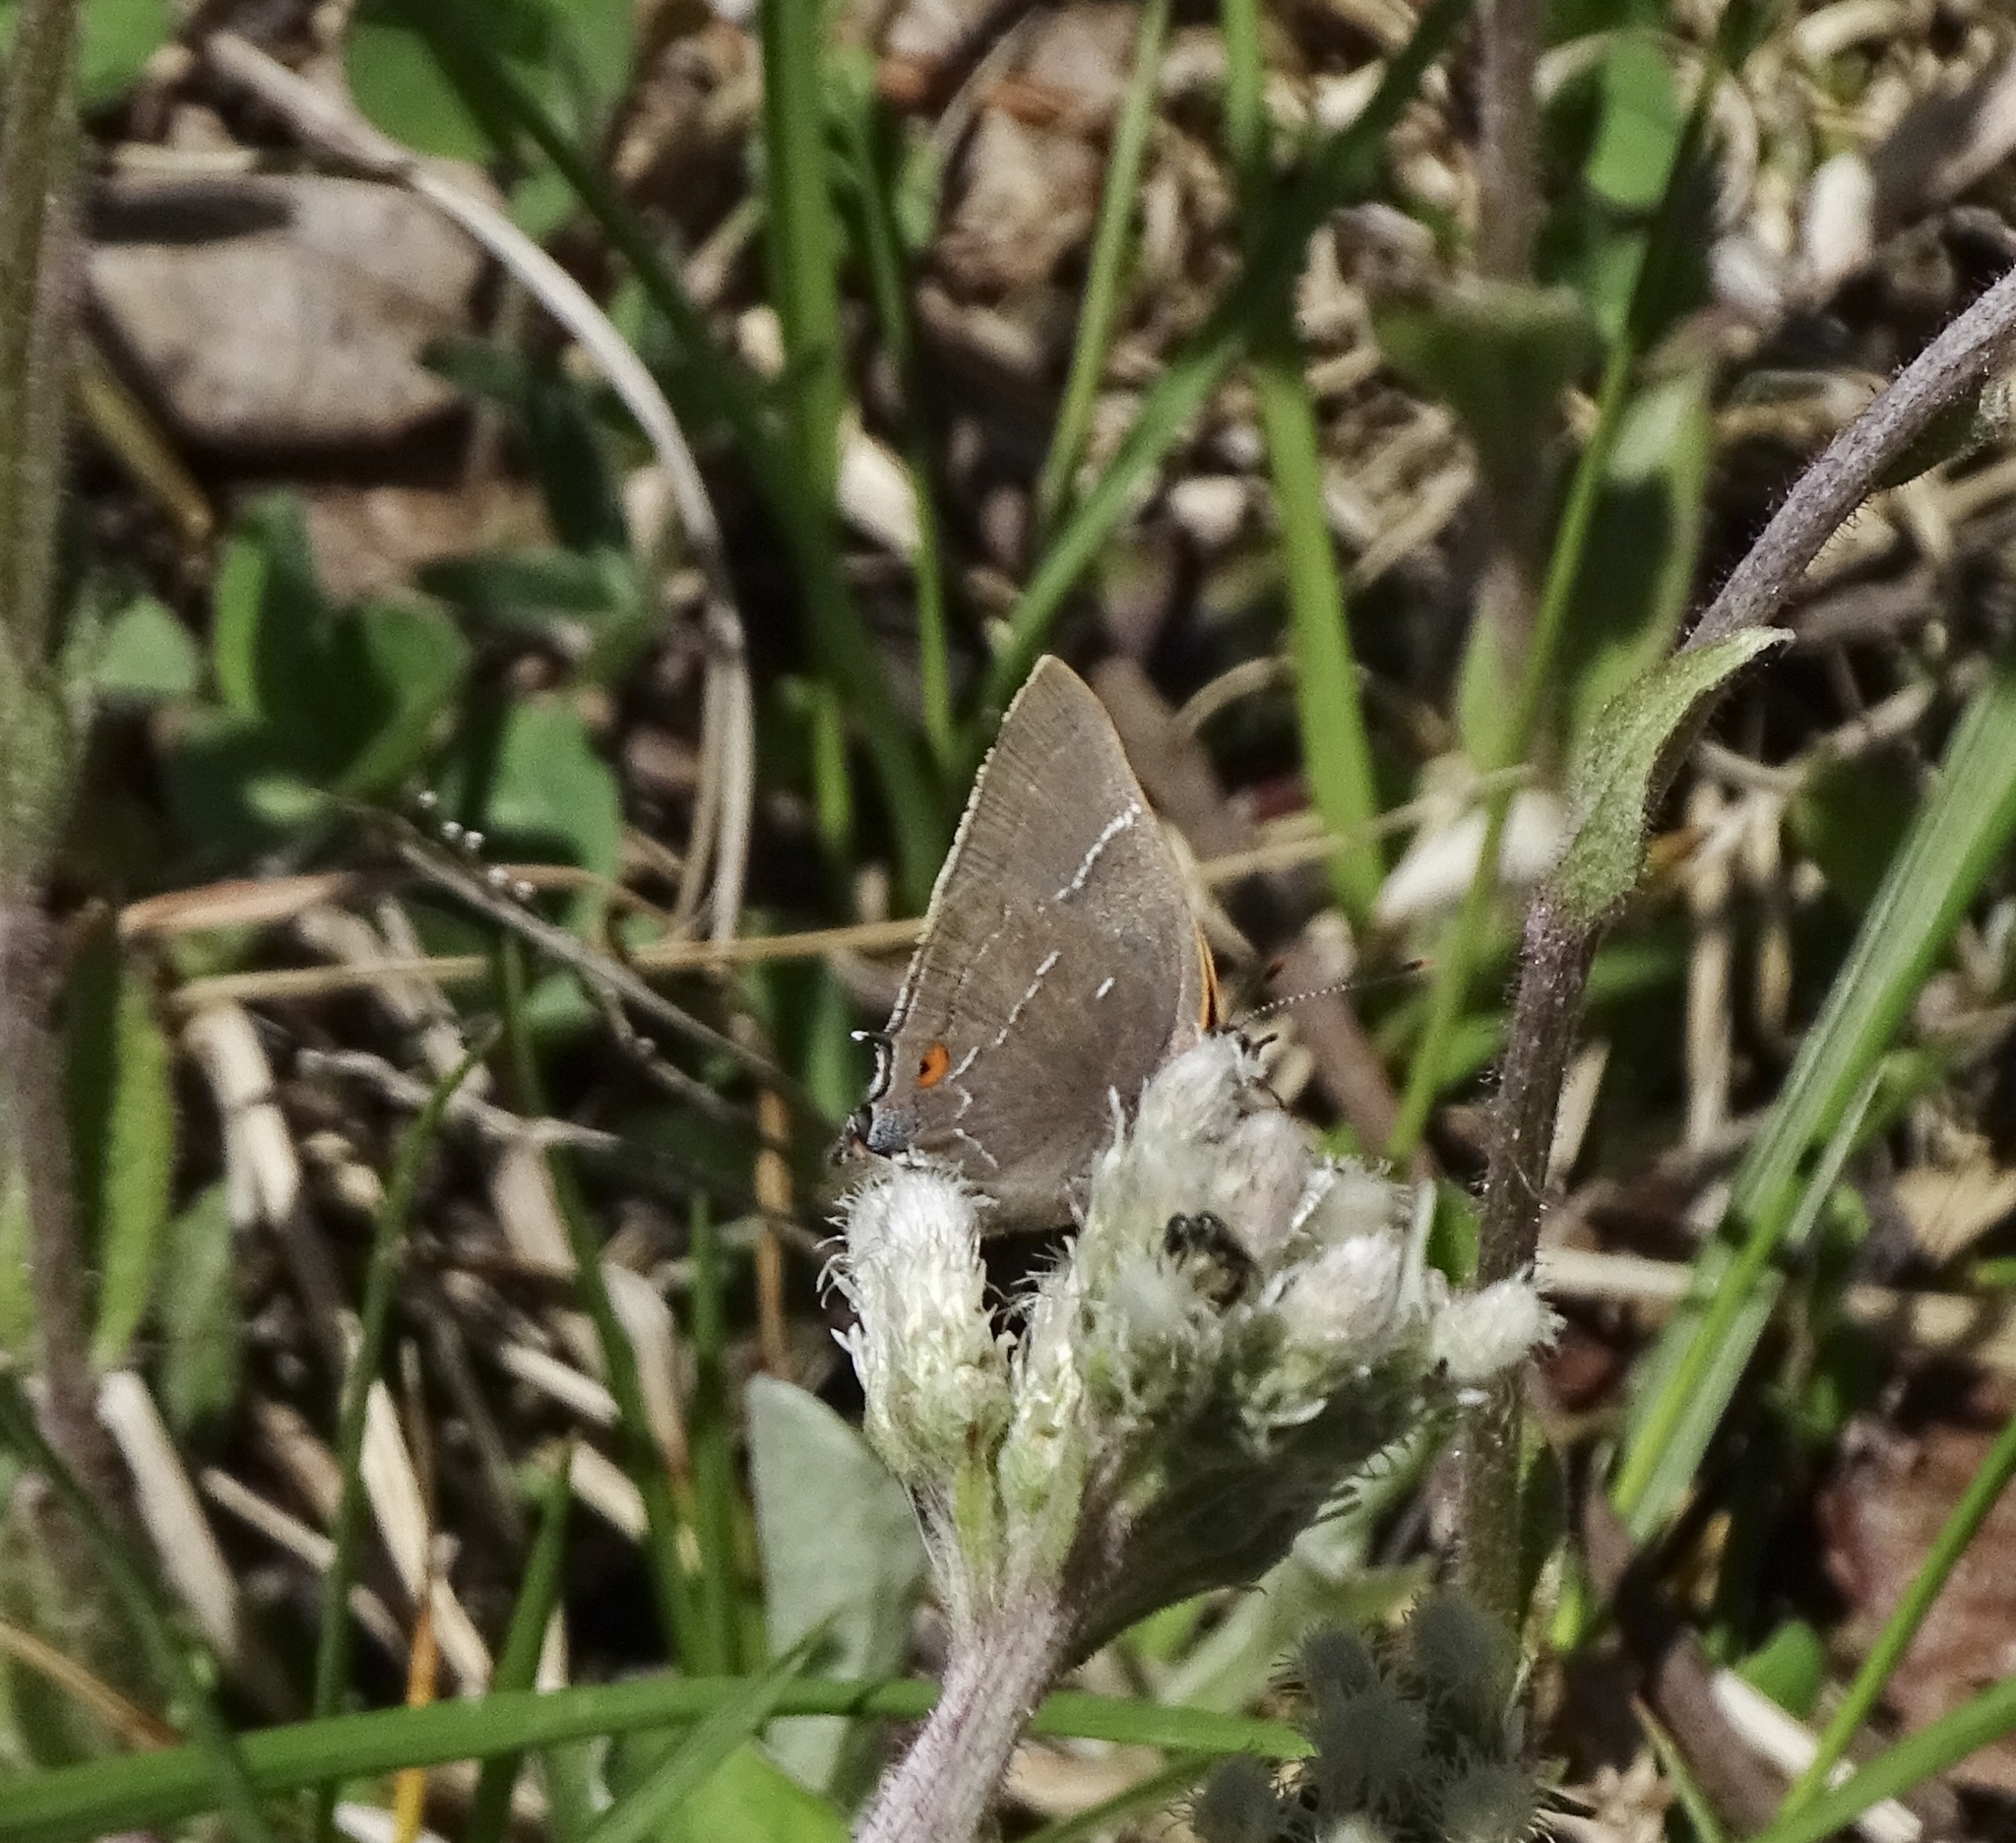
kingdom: Animalia
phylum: Arthropoda
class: Insecta
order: Lepidoptera
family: Lycaenidae
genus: Parrhasius
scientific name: Parrhasius m-album
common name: White m hairstreak
